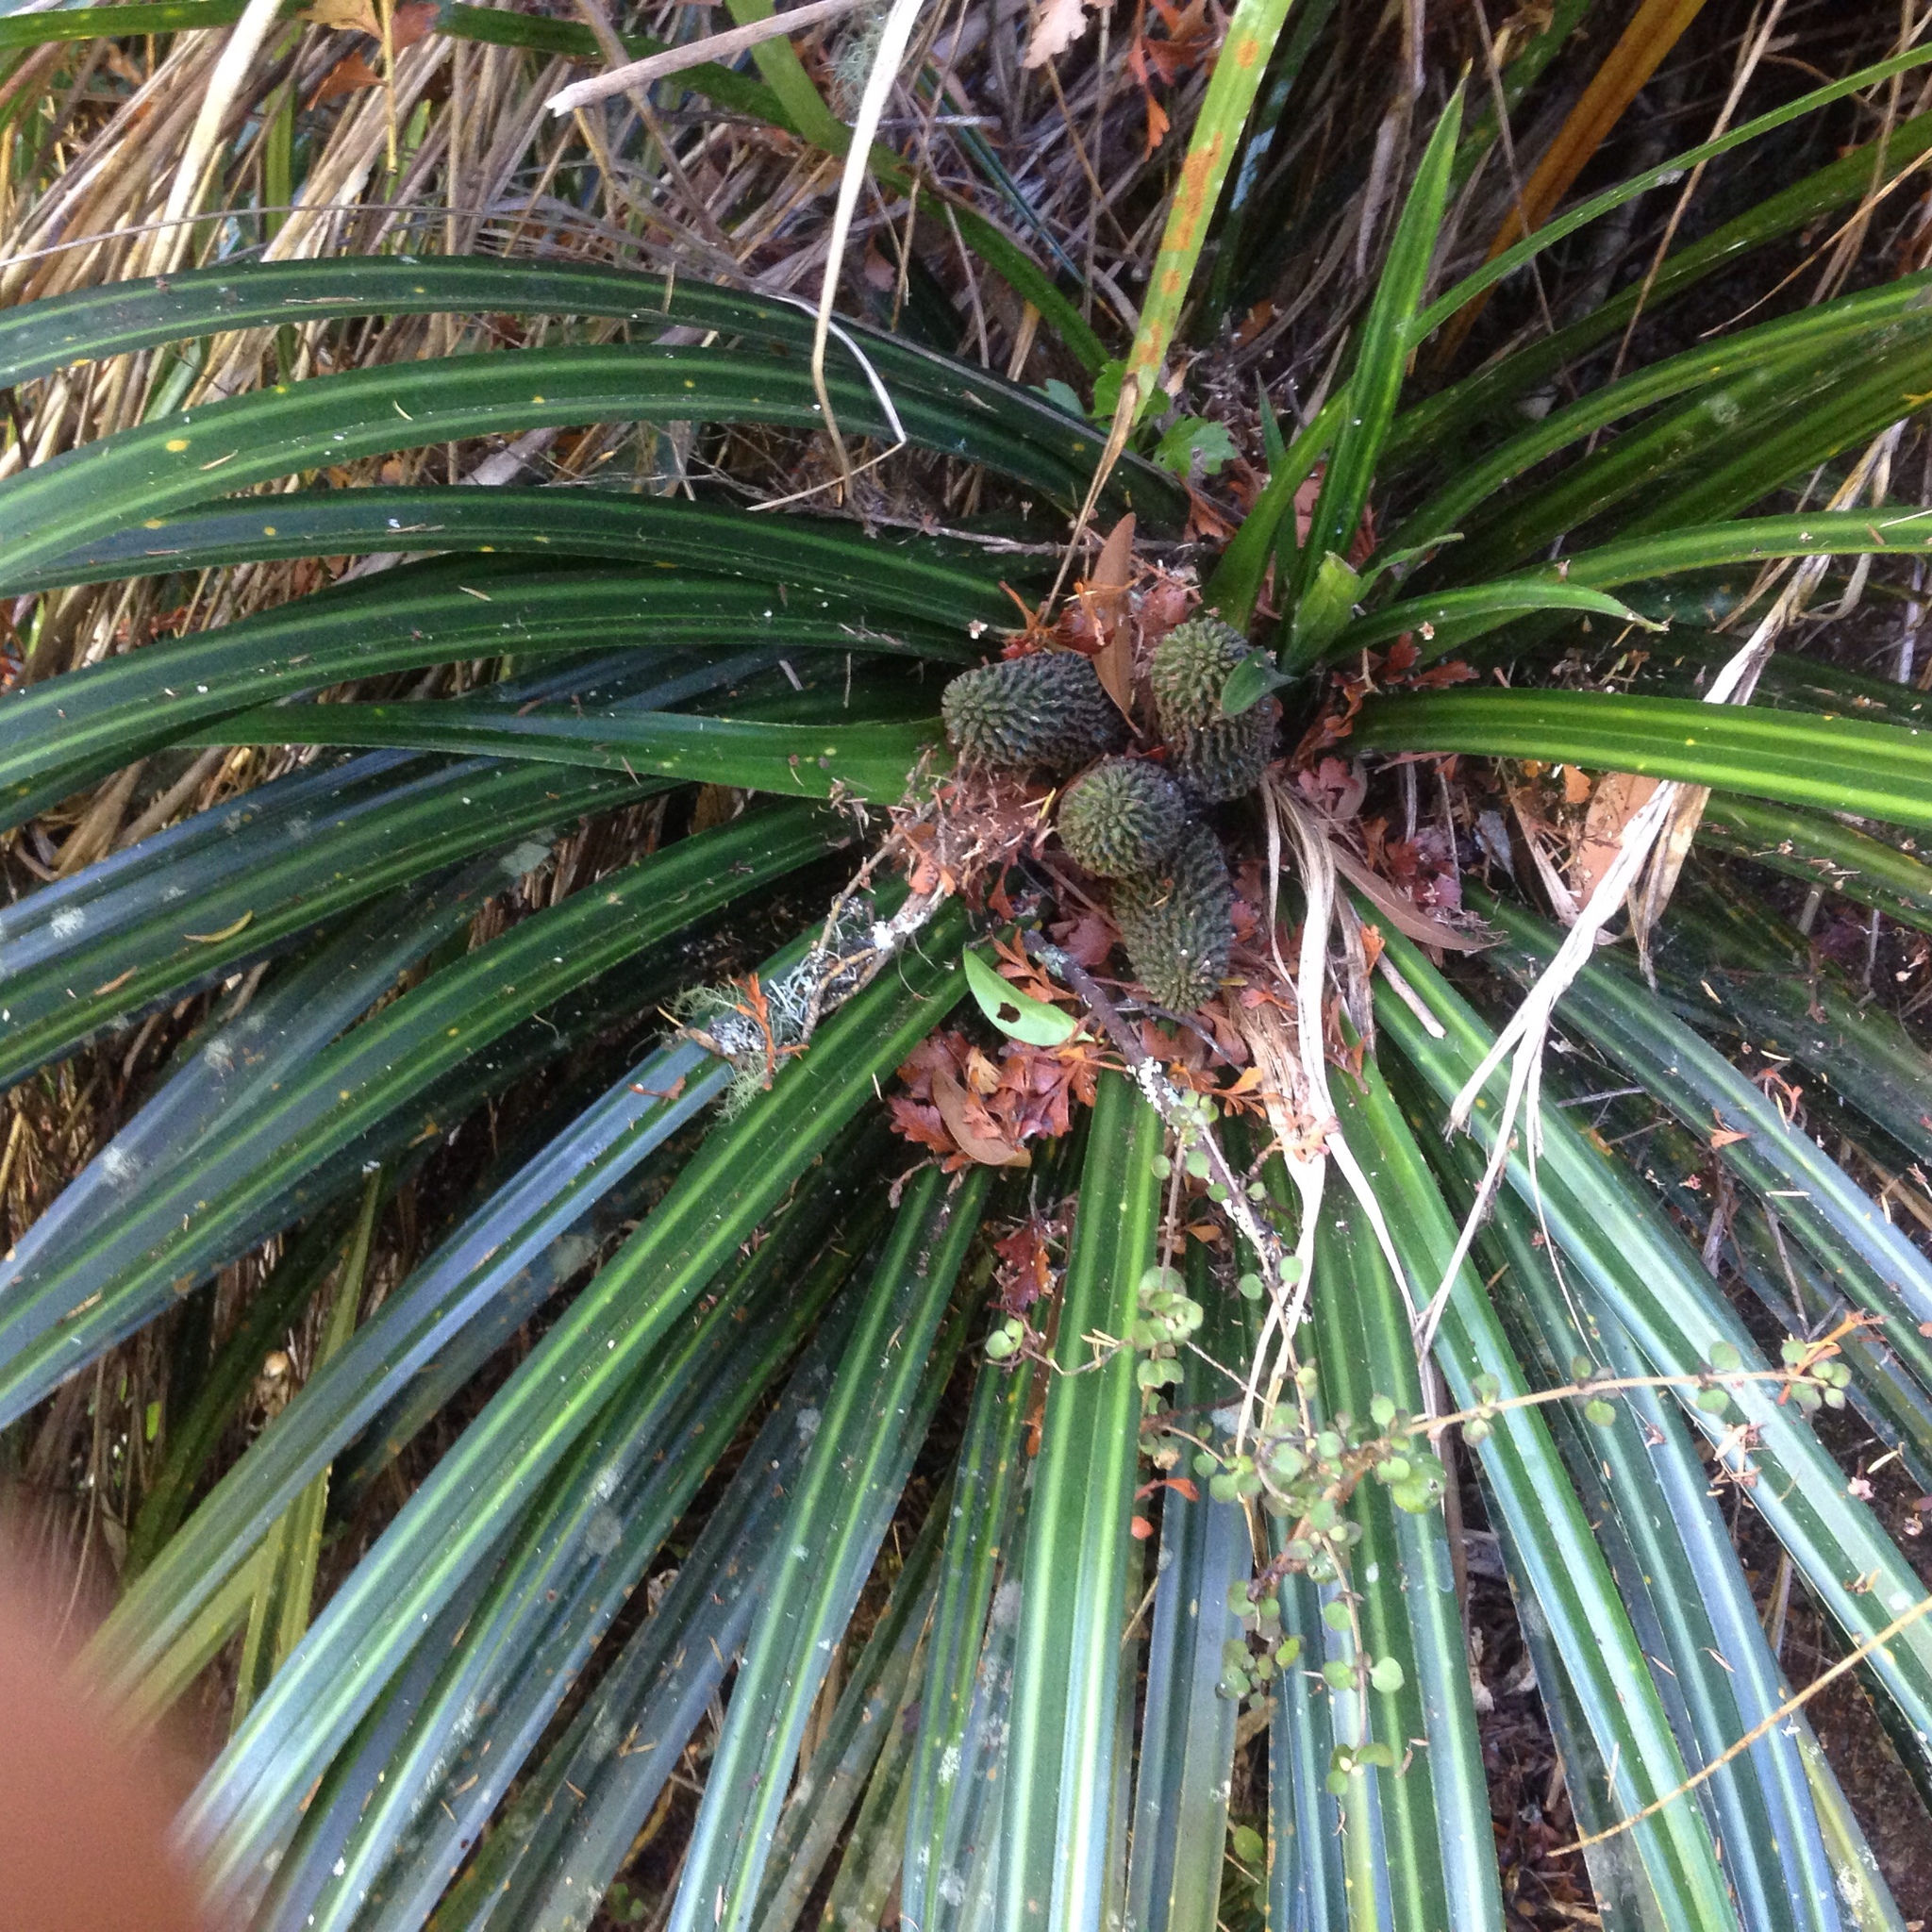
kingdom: Plantae
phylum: Tracheophyta
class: Liliopsida
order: Pandanales
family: Pandanaceae
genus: Freycinetia
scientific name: Freycinetia banksii
